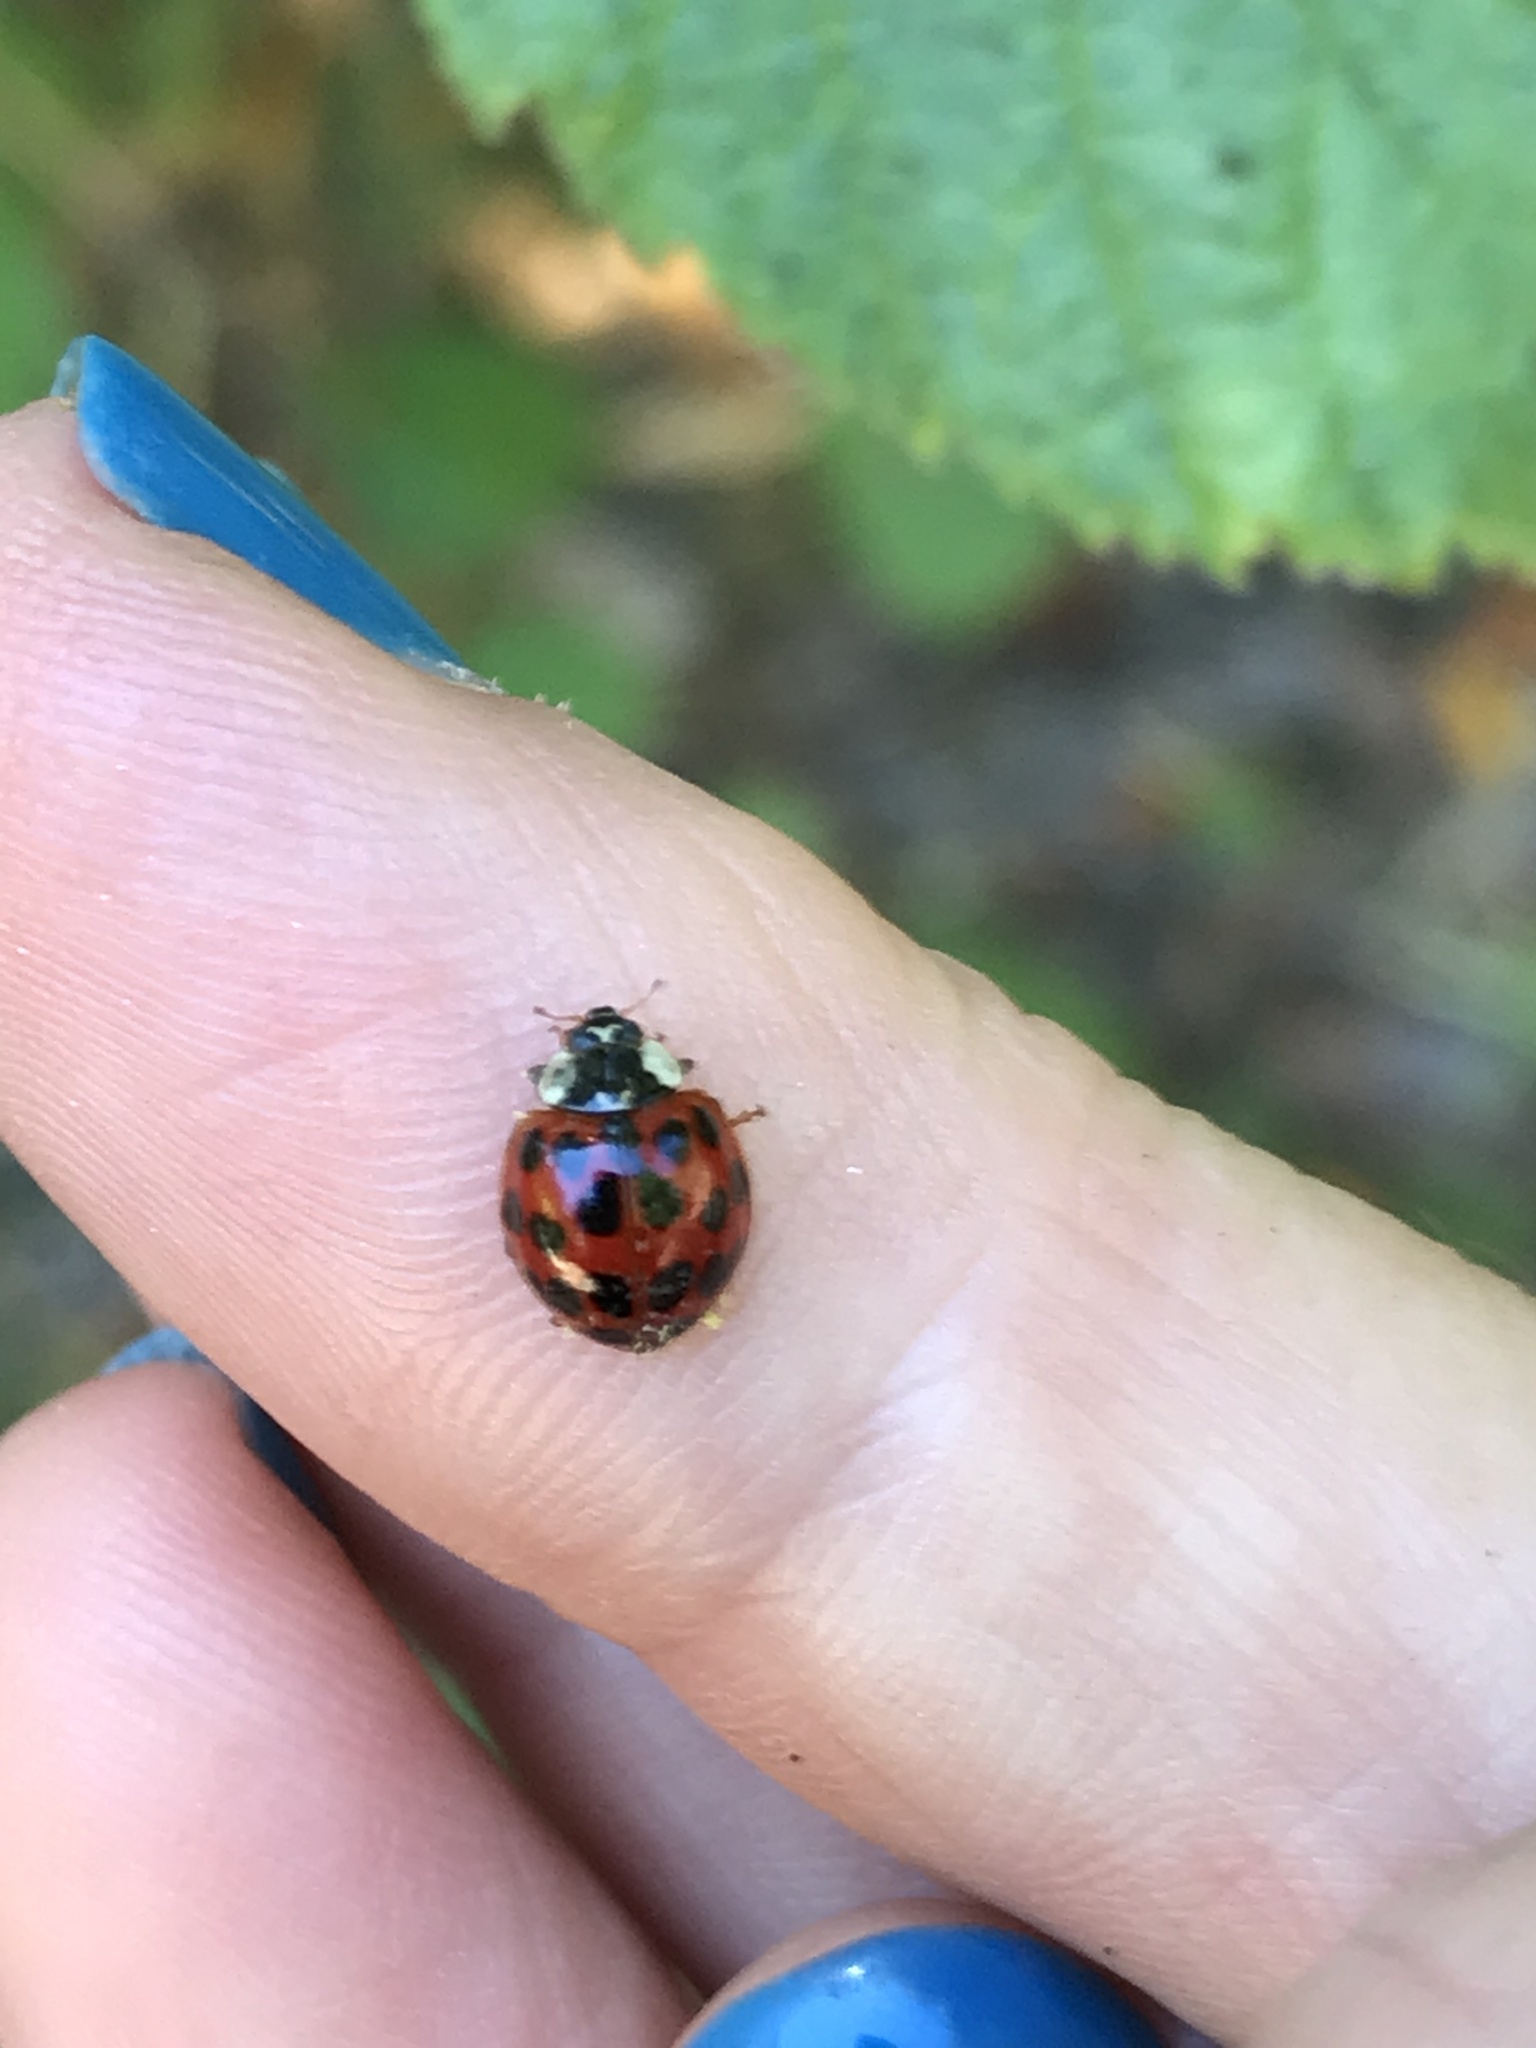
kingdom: Fungi
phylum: Ascomycota
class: Laboulbeniomycetes
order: Laboulbeniales
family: Laboulbeniaceae
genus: Hesperomyces
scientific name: Hesperomyces harmoniae
